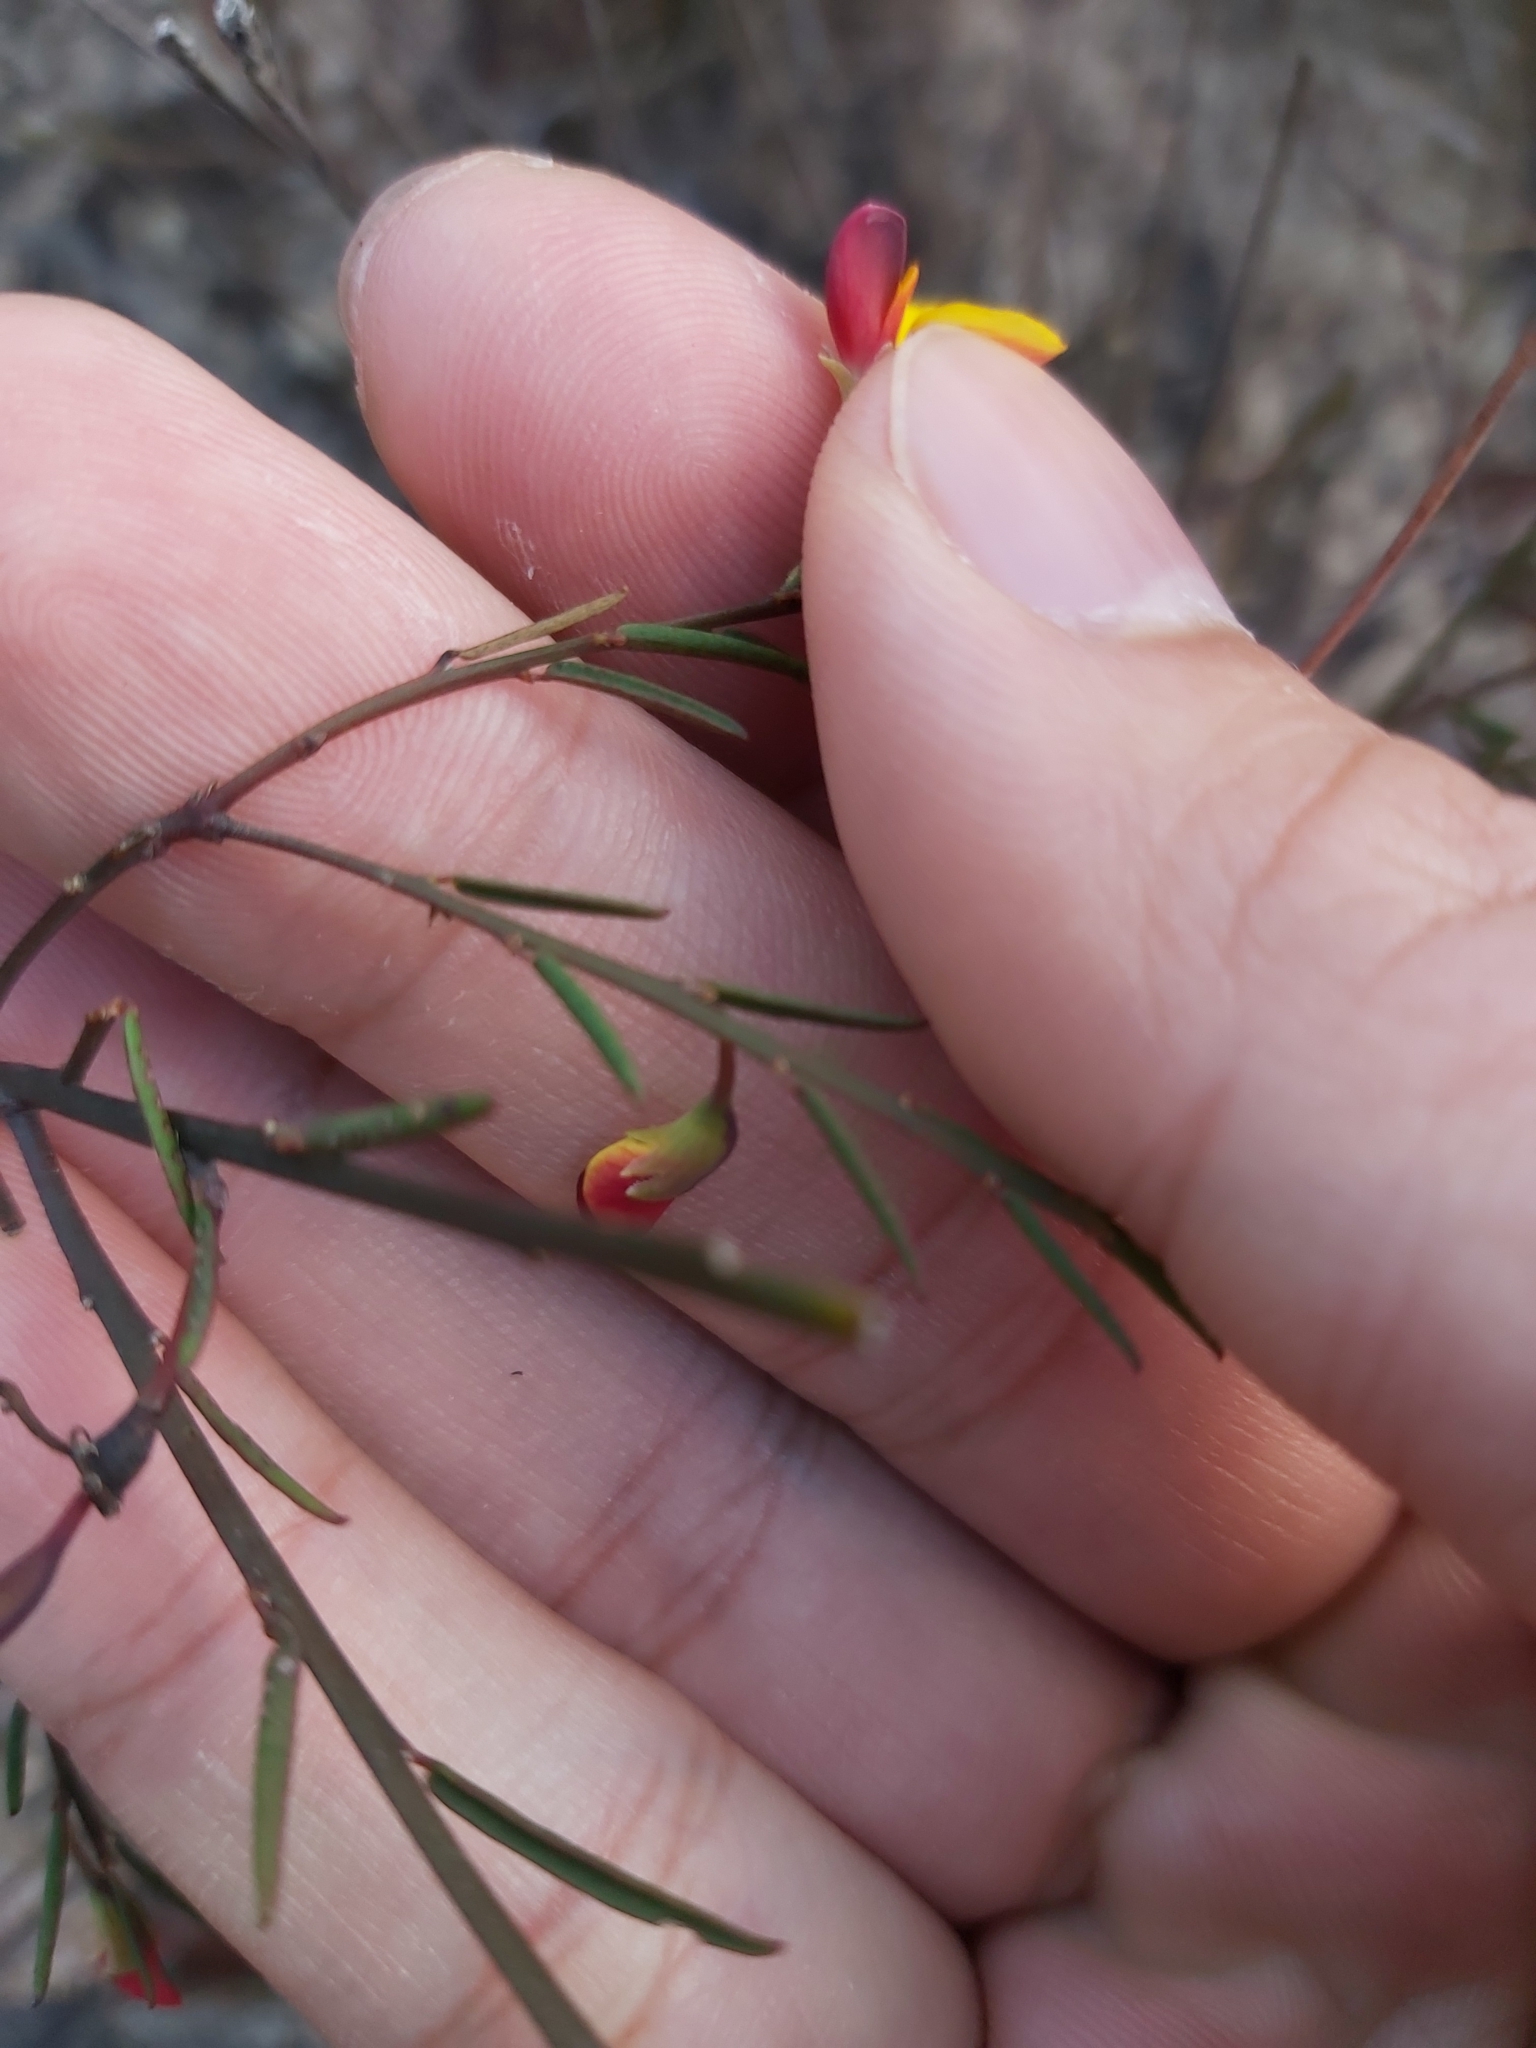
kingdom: Plantae
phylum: Tracheophyta
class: Magnoliopsida
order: Fabales
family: Fabaceae
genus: Bossiaea
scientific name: Bossiaea heterophylla
